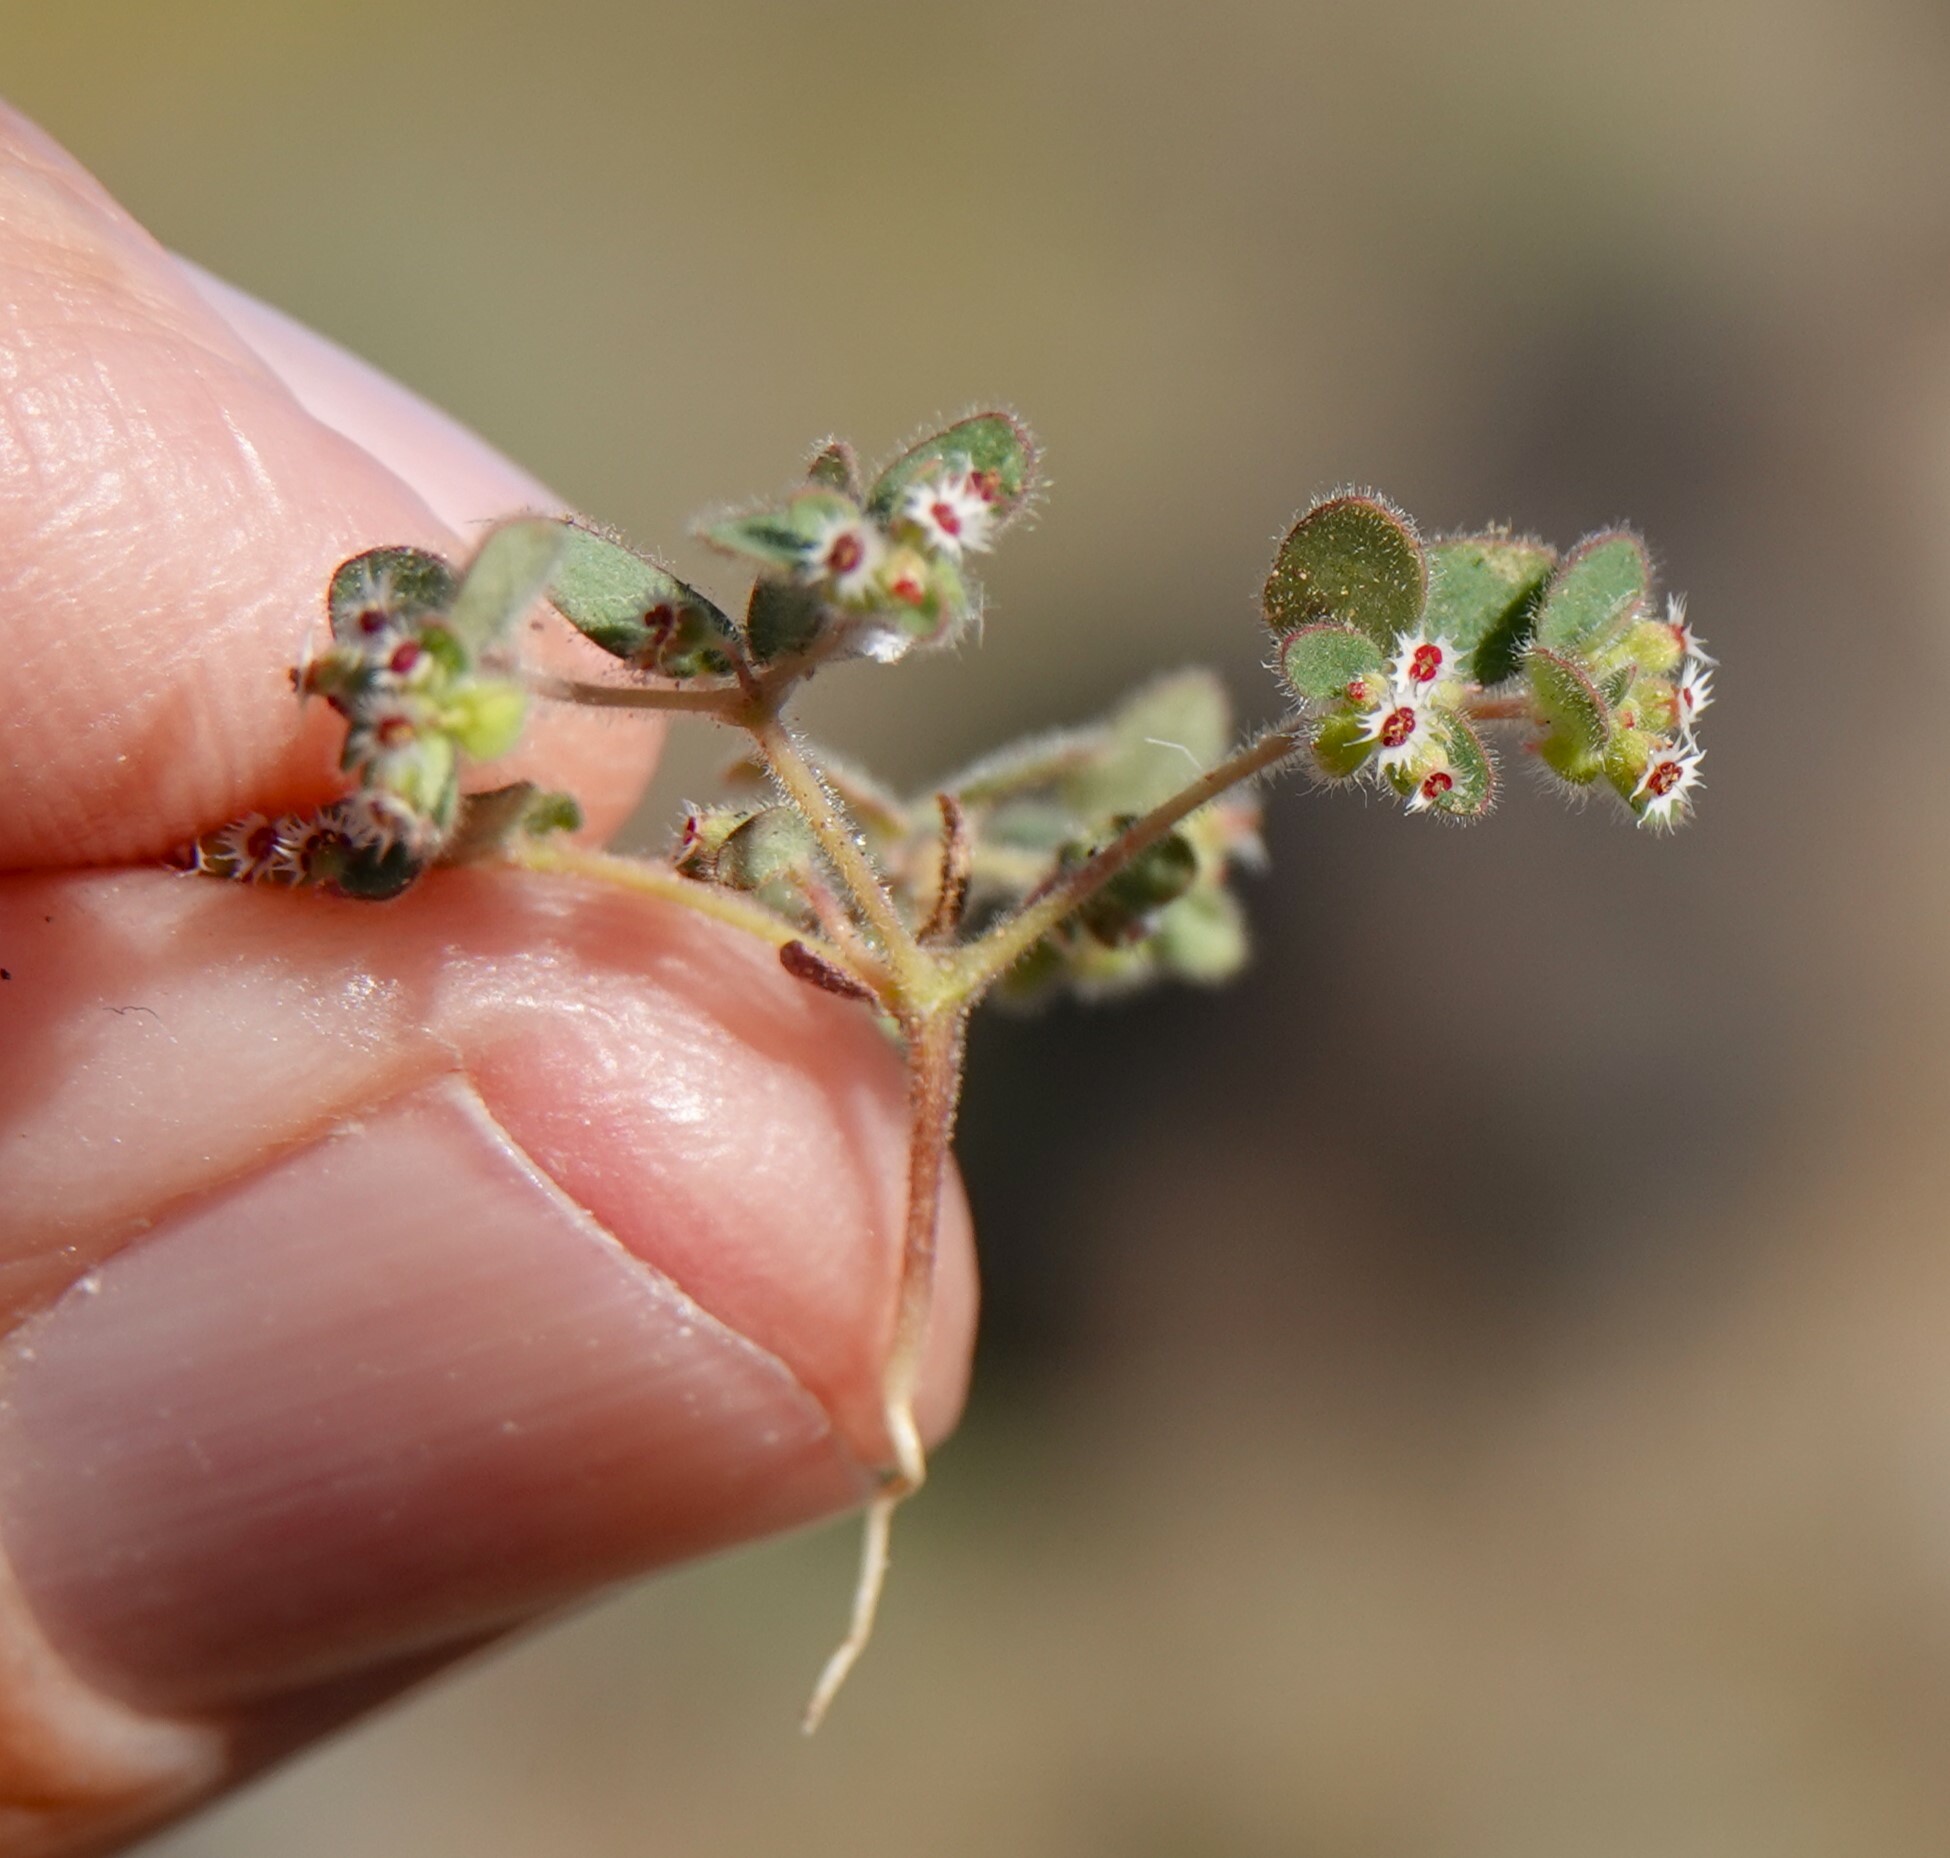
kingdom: Plantae
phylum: Tracheophyta
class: Magnoliopsida
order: Malpighiales
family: Euphorbiaceae
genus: Euphorbia
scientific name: Euphorbia setiloba
